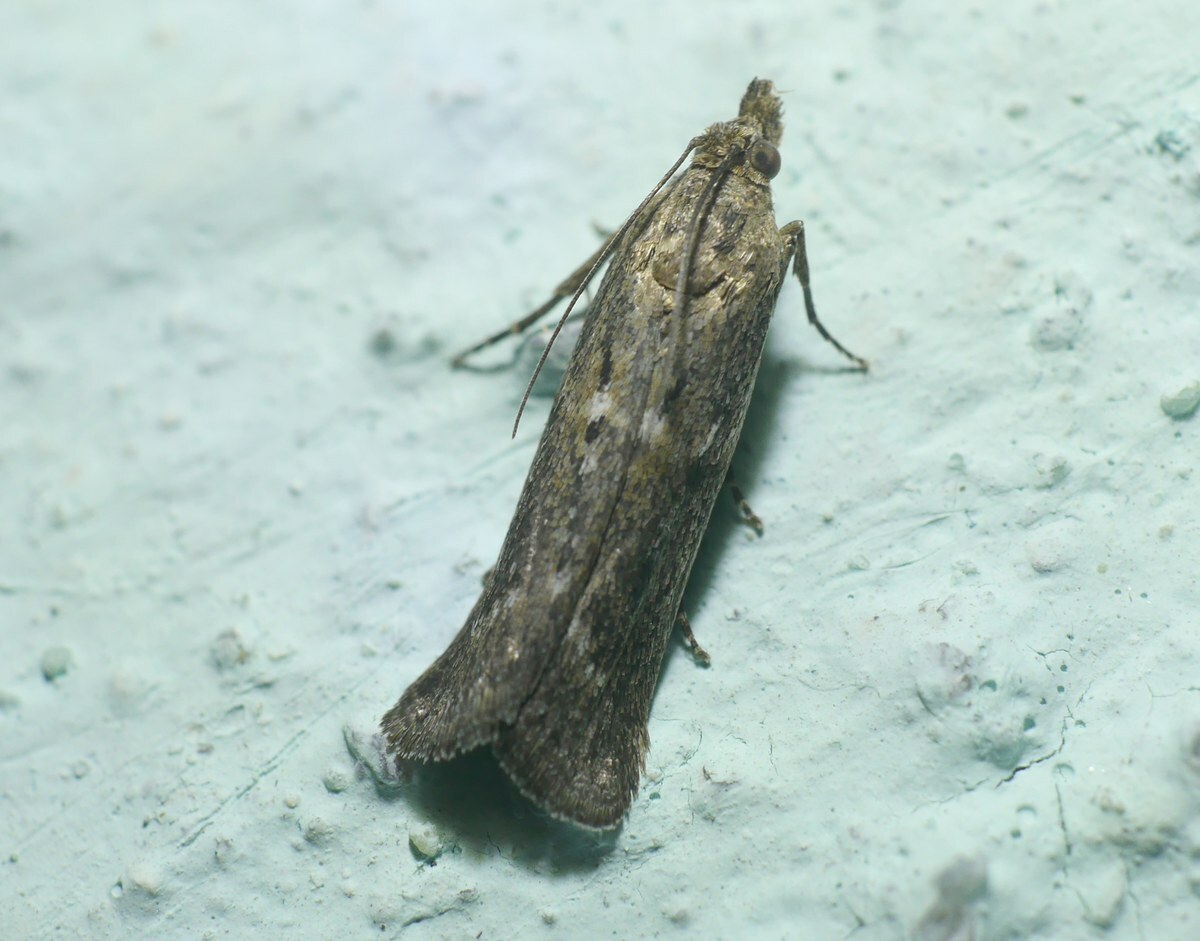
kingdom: Animalia
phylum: Arthropoda
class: Insecta
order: Lepidoptera
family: Pyralidae
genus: Conobathra
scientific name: Conobathra Isauria dilucidella
